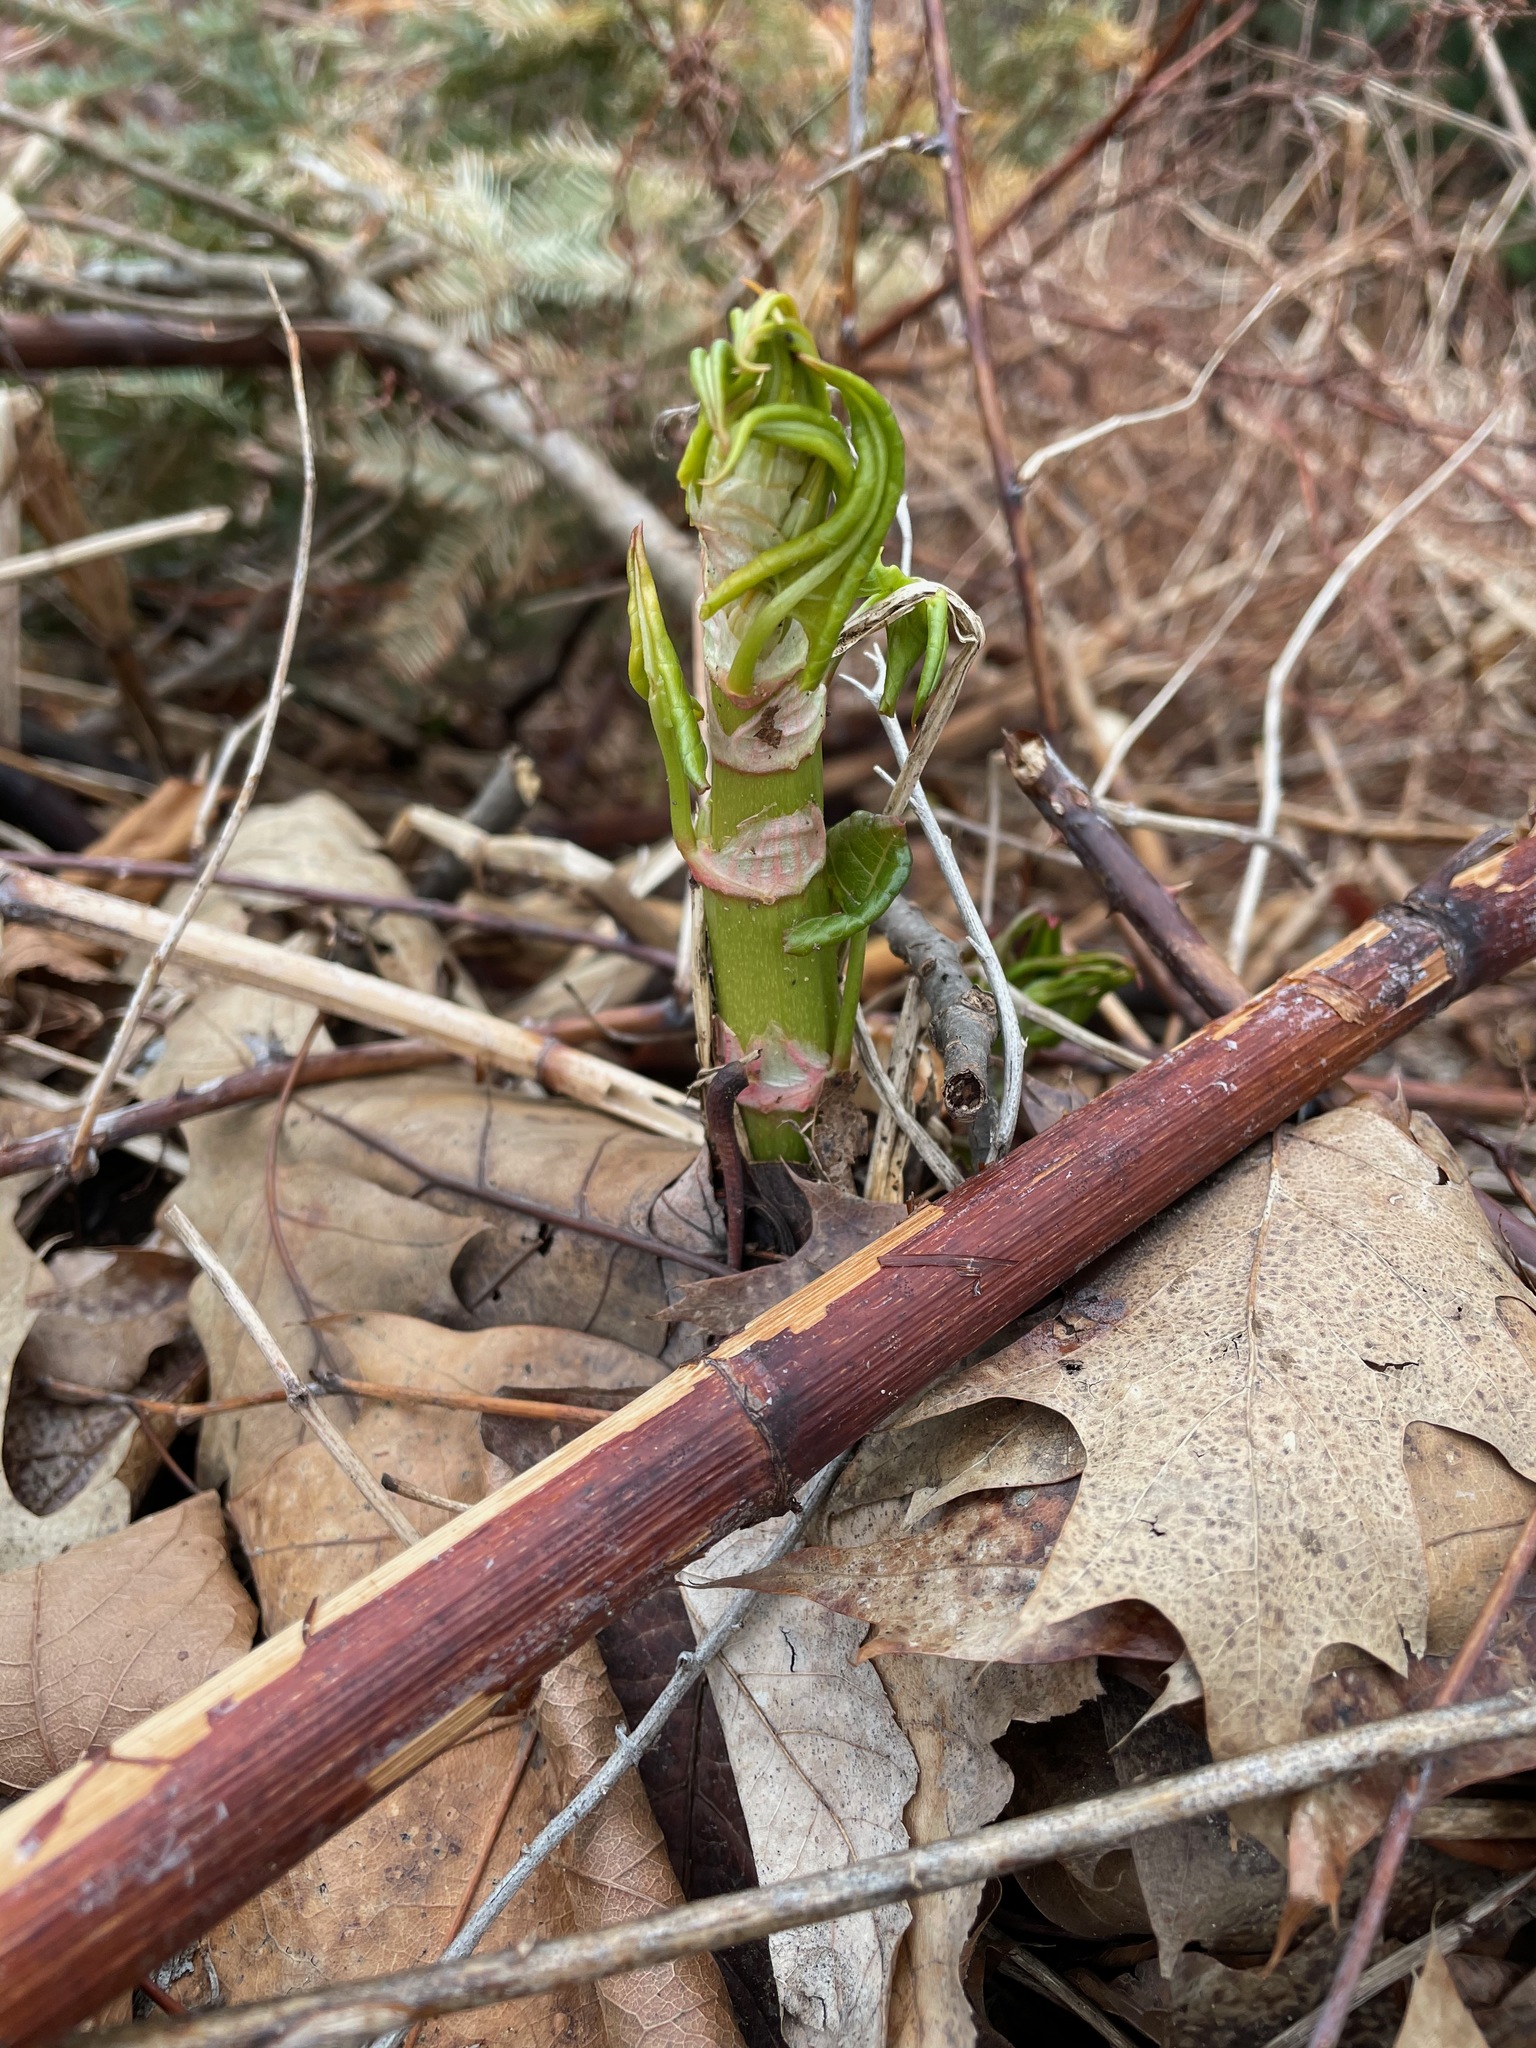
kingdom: Plantae
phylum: Tracheophyta
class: Magnoliopsida
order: Caryophyllales
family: Polygonaceae
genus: Reynoutria
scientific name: Reynoutria japonica
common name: Japanese knotweed
